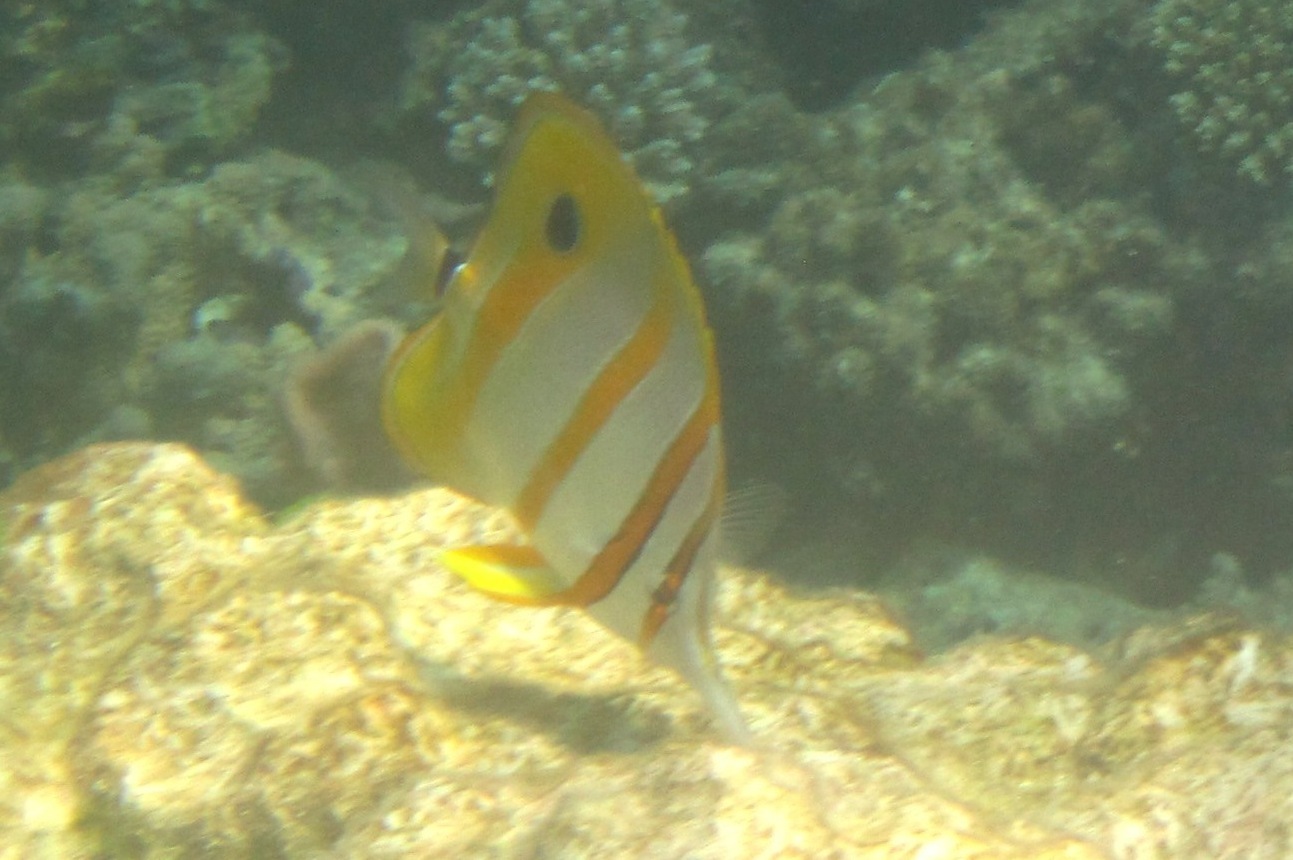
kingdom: Animalia
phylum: Chordata
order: Perciformes
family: Chaetodontidae
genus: Chelmon
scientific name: Chelmon rostratus
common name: Beaked butterflyfish
